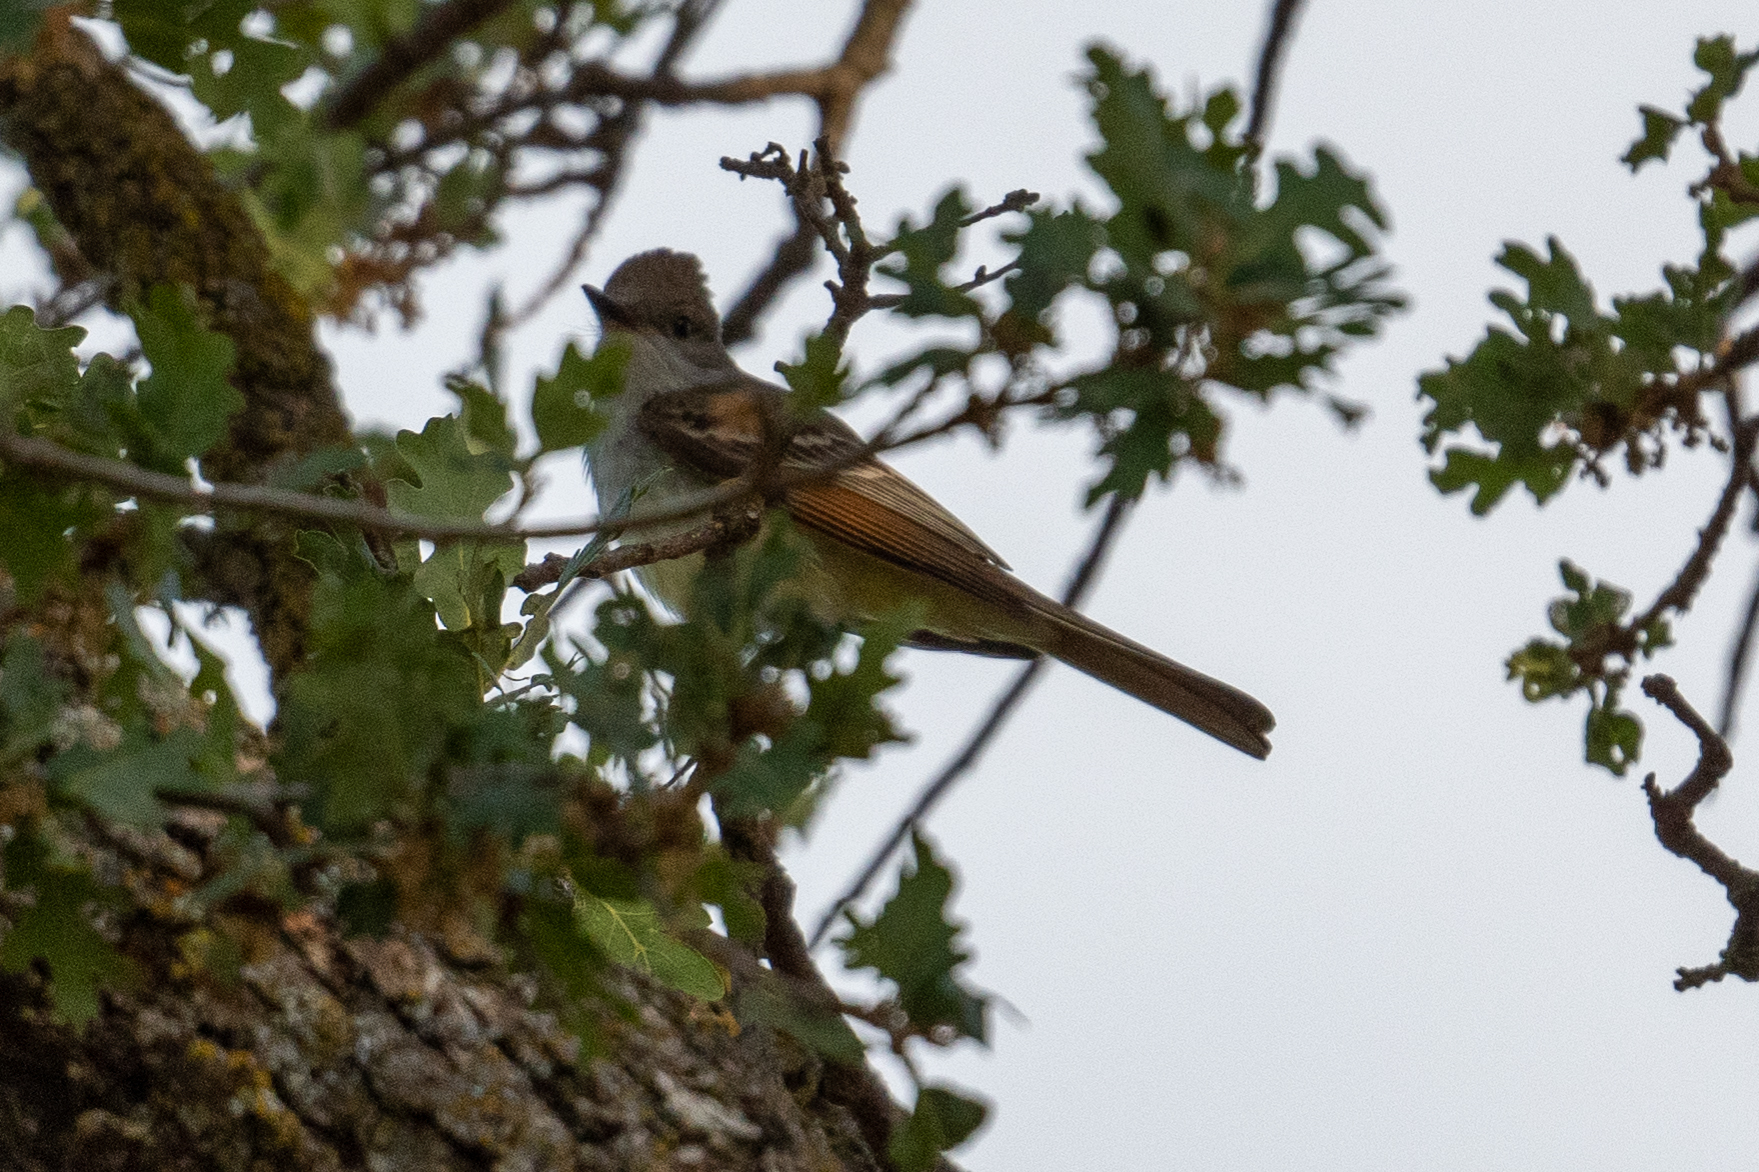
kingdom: Animalia
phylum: Chordata
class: Aves
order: Passeriformes
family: Tyrannidae
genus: Myiarchus
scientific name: Myiarchus cinerascens
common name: Ash-throated flycatcher
